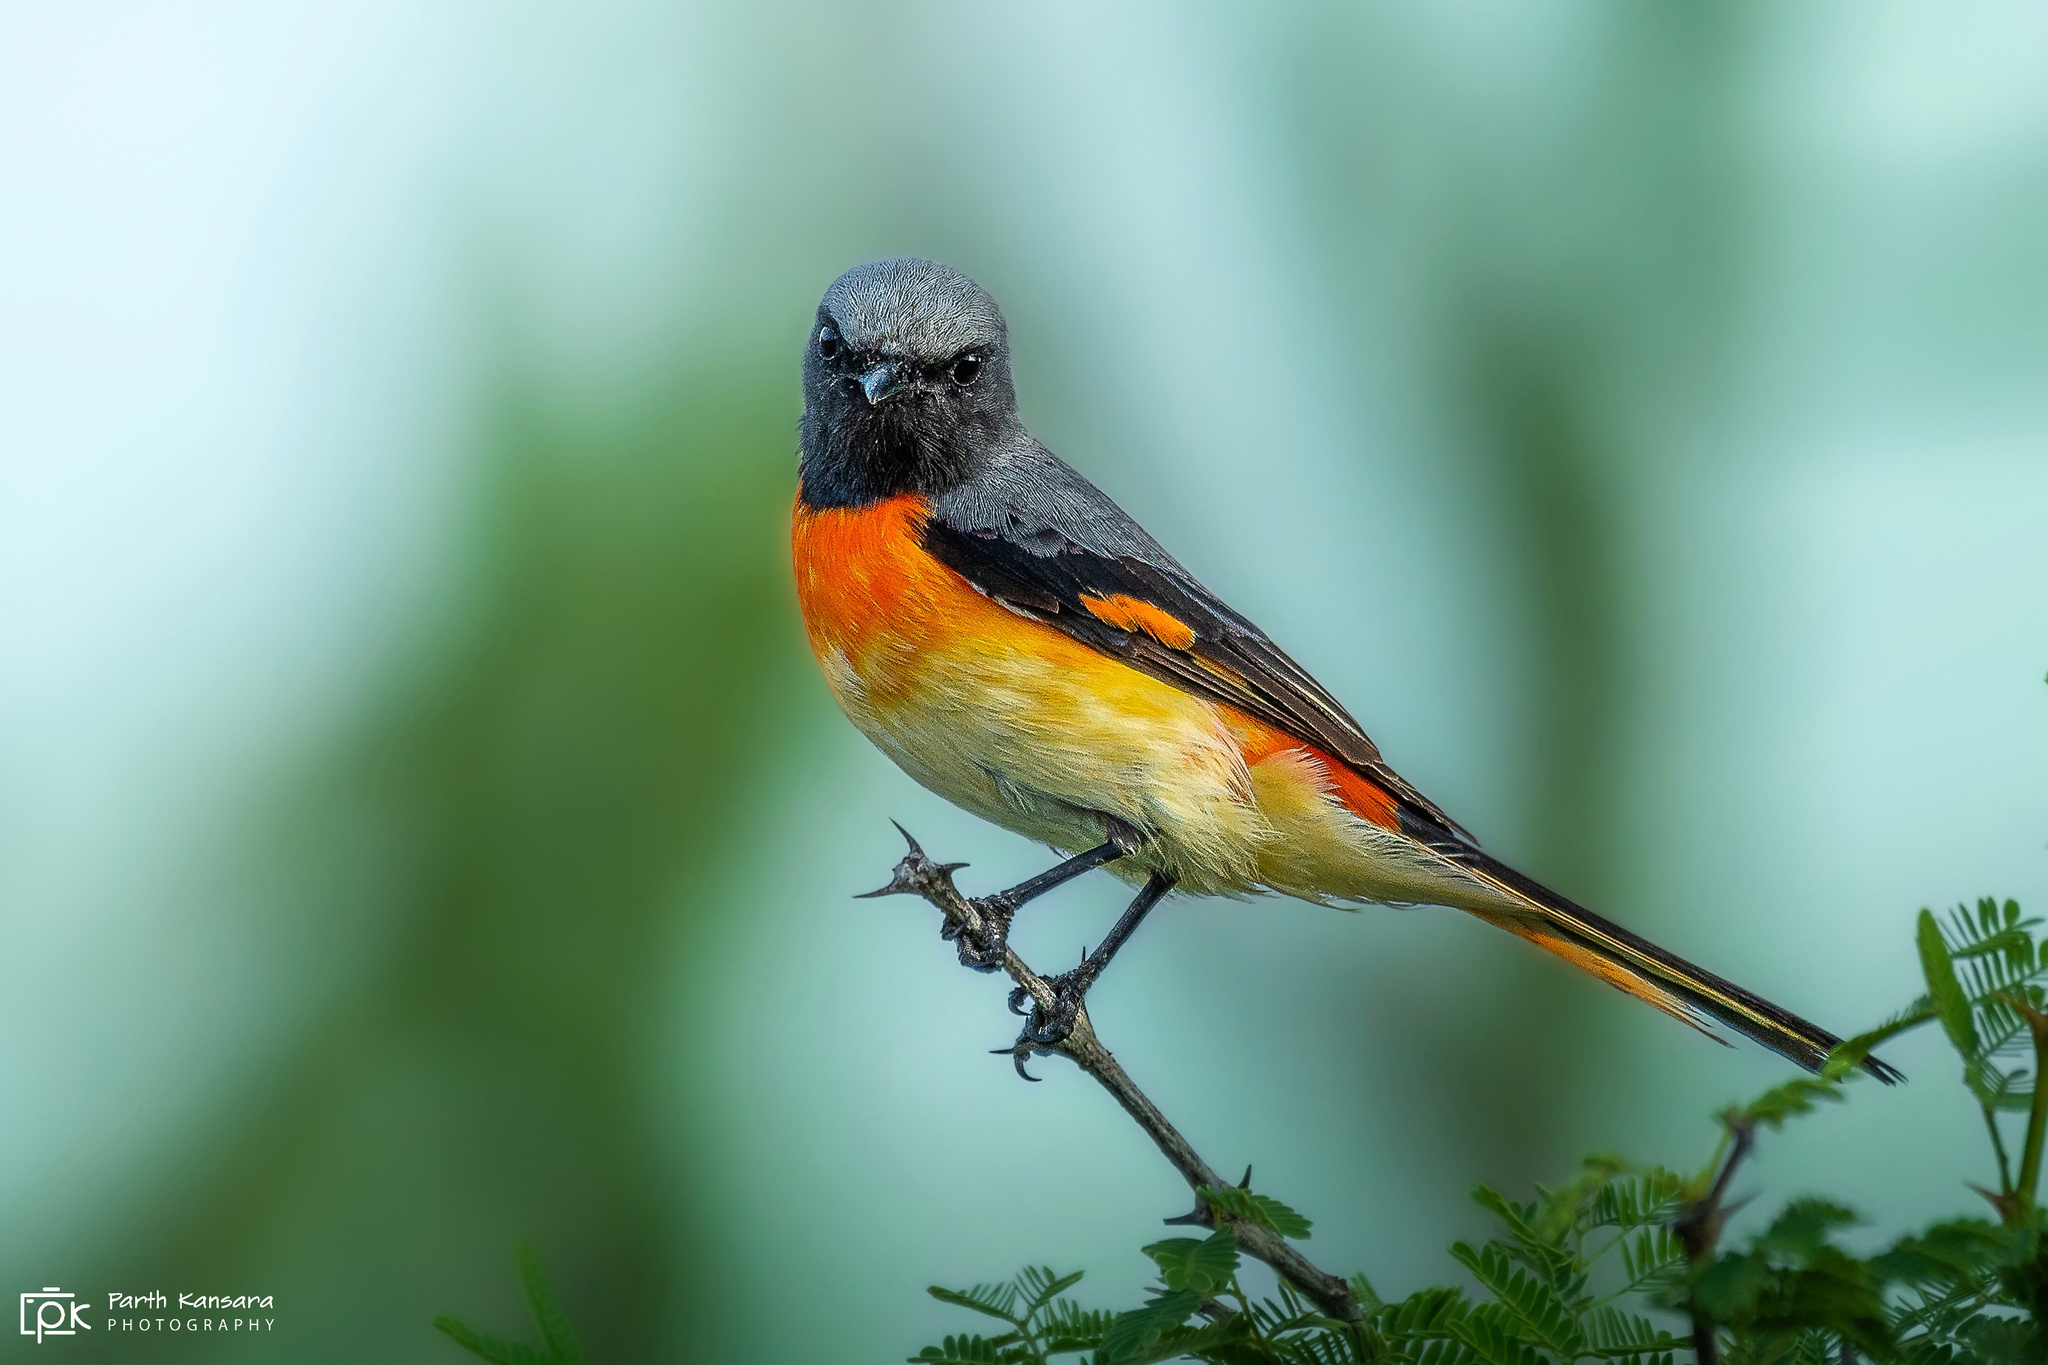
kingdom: Animalia
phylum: Chordata
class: Aves
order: Passeriformes
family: Campephagidae
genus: Pericrocotus
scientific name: Pericrocotus cinnamomeus
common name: Small minivet
